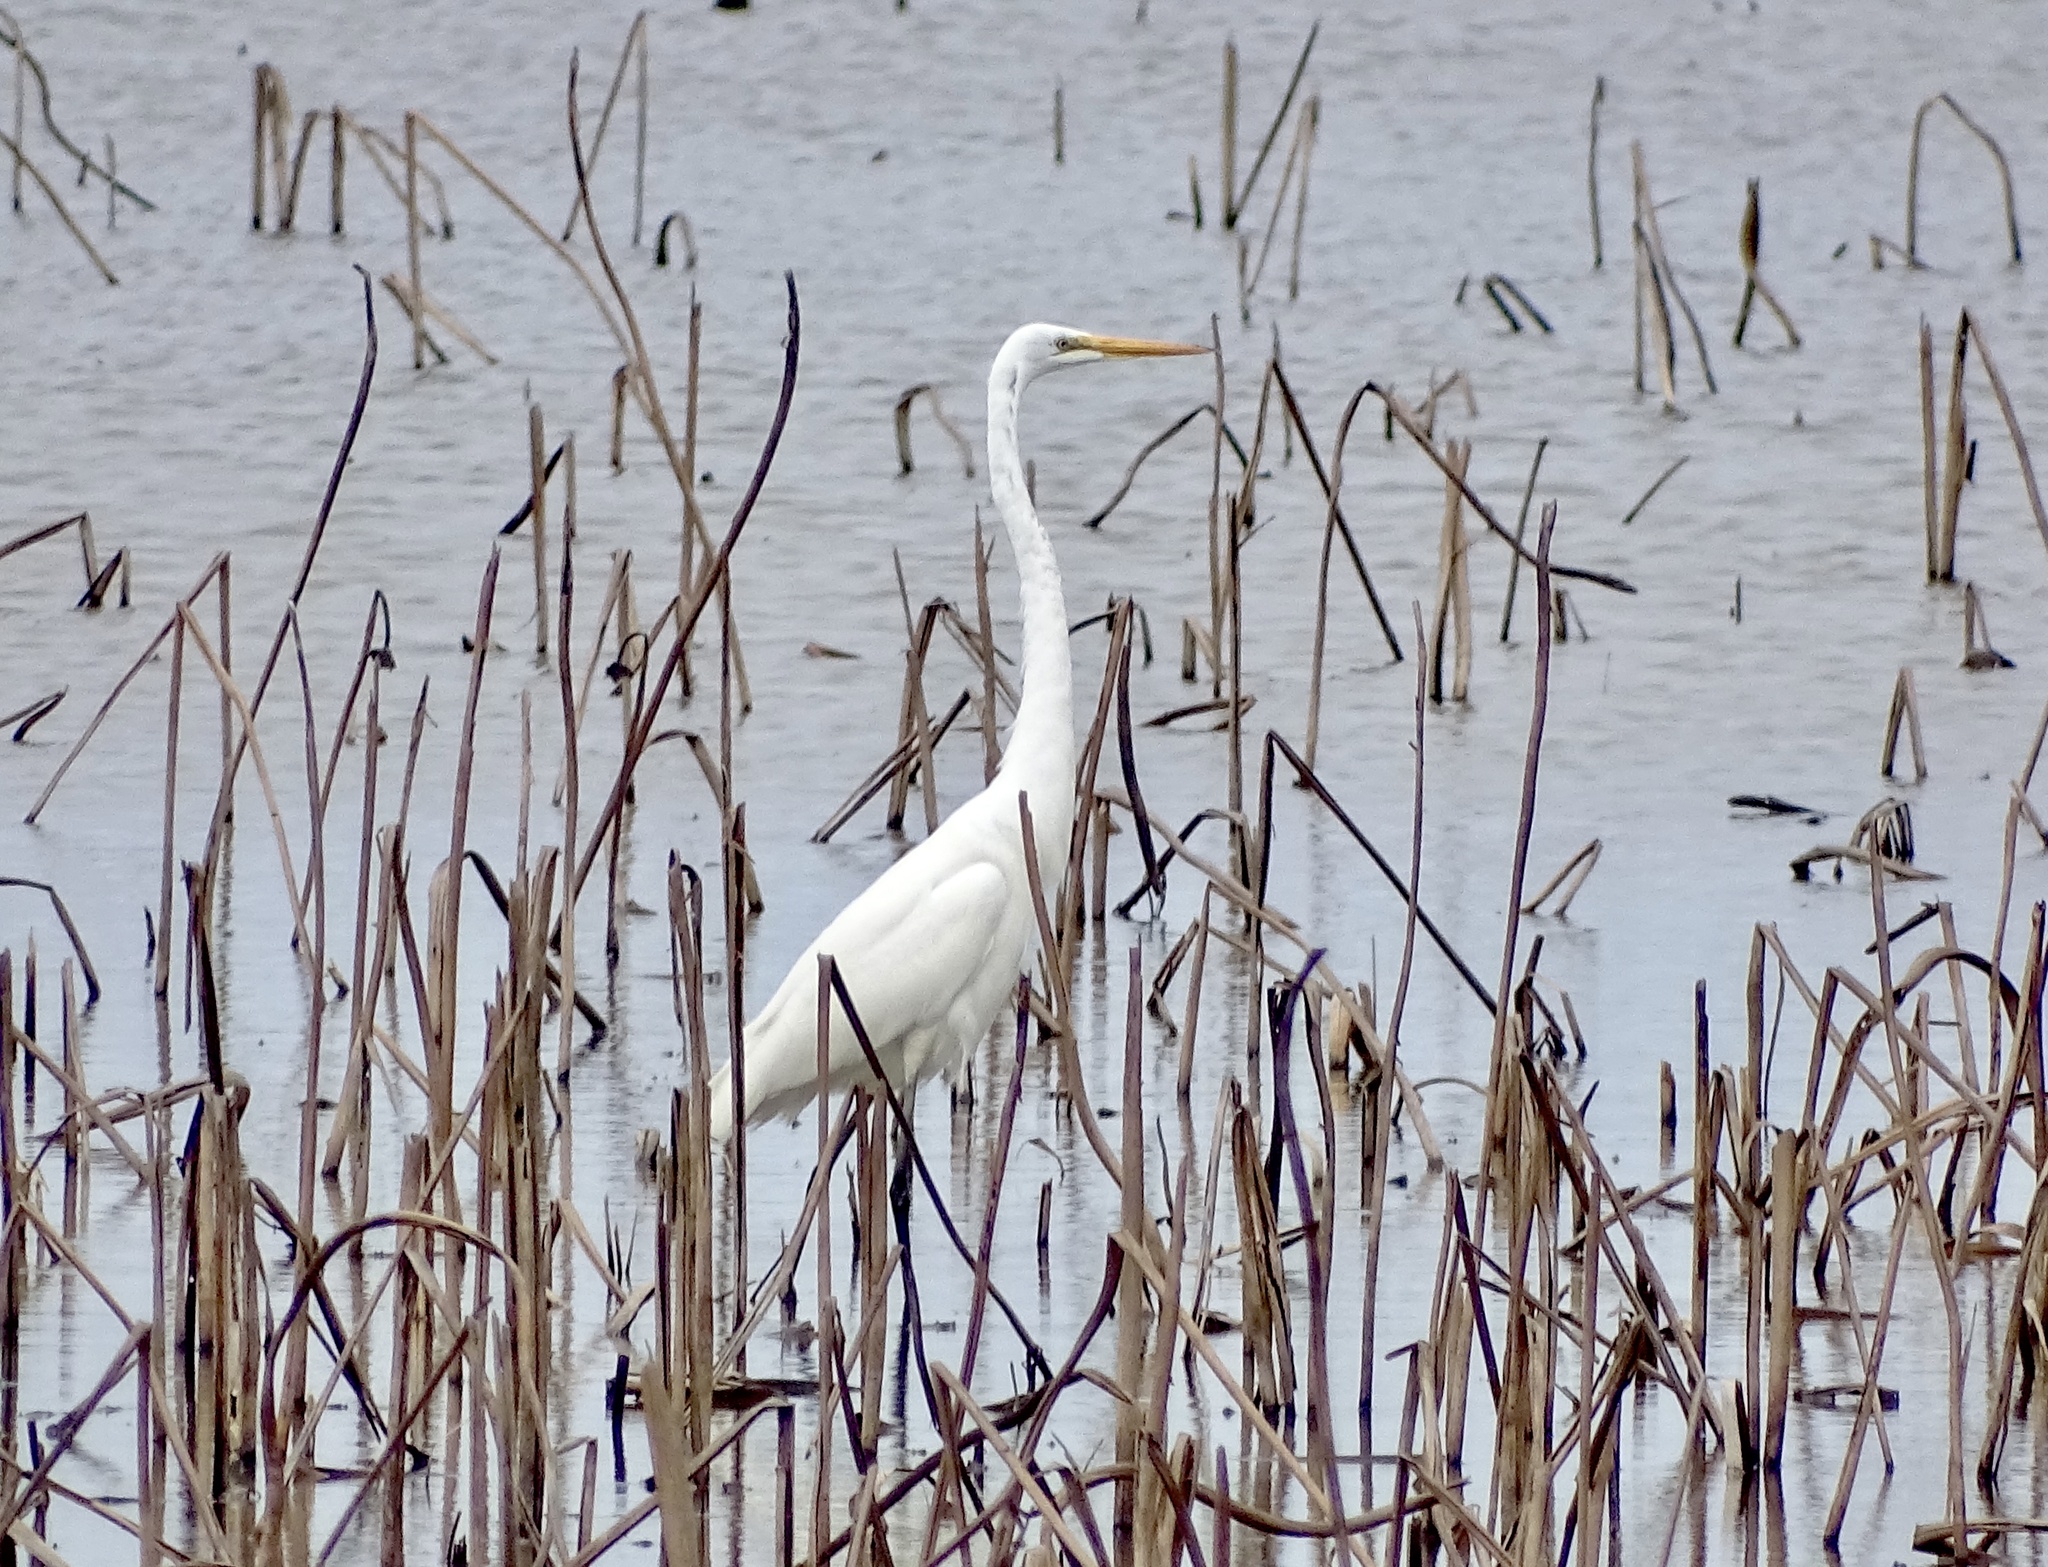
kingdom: Animalia
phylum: Chordata
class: Aves
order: Pelecaniformes
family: Ardeidae
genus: Ardea
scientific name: Ardea alba
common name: Great egret
